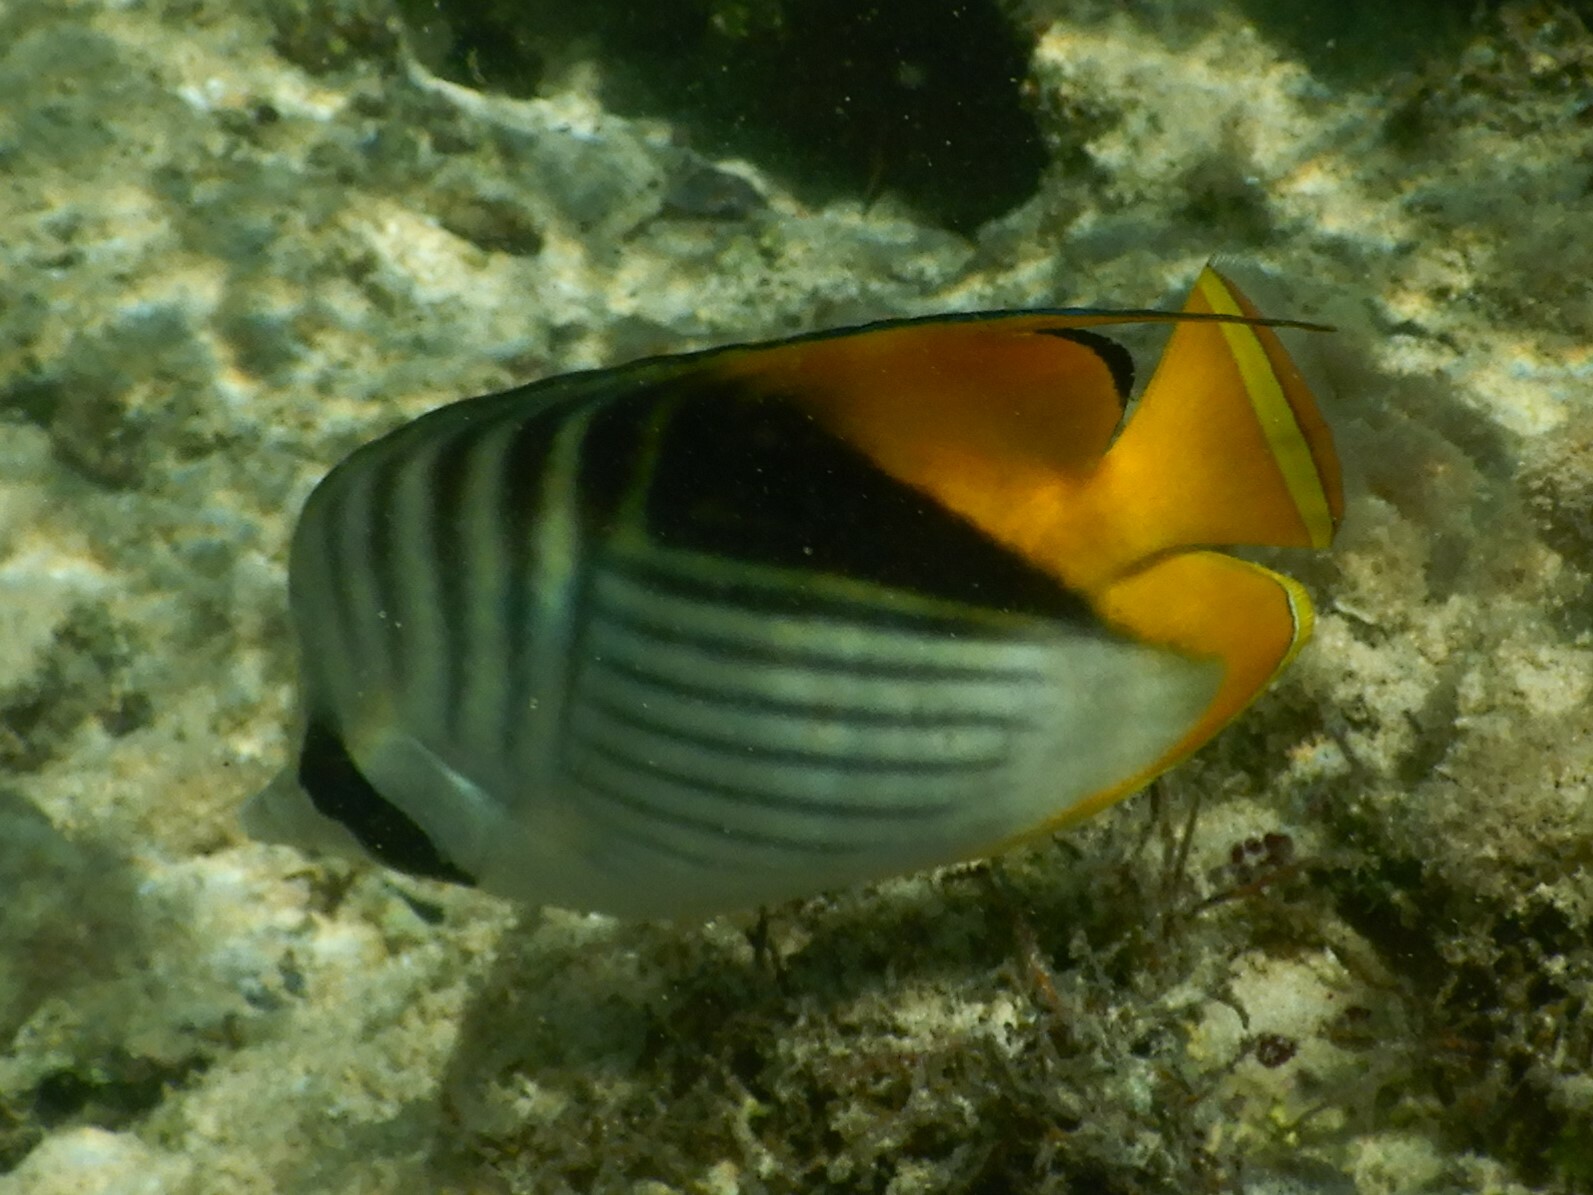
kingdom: Animalia
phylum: Chordata
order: Perciformes
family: Chaetodontidae
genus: Chaetodon
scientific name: Chaetodon auriga
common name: Threadfin butterflyfish
